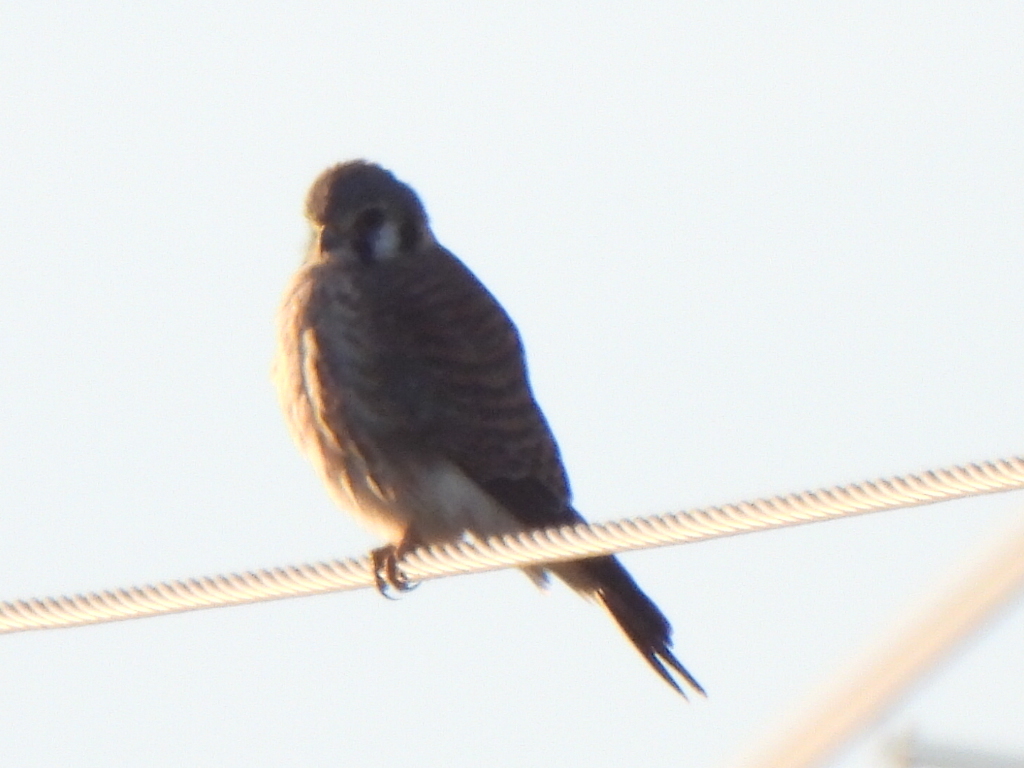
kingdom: Animalia
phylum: Chordata
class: Aves
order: Falconiformes
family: Falconidae
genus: Falco
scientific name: Falco sparverius
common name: American kestrel
